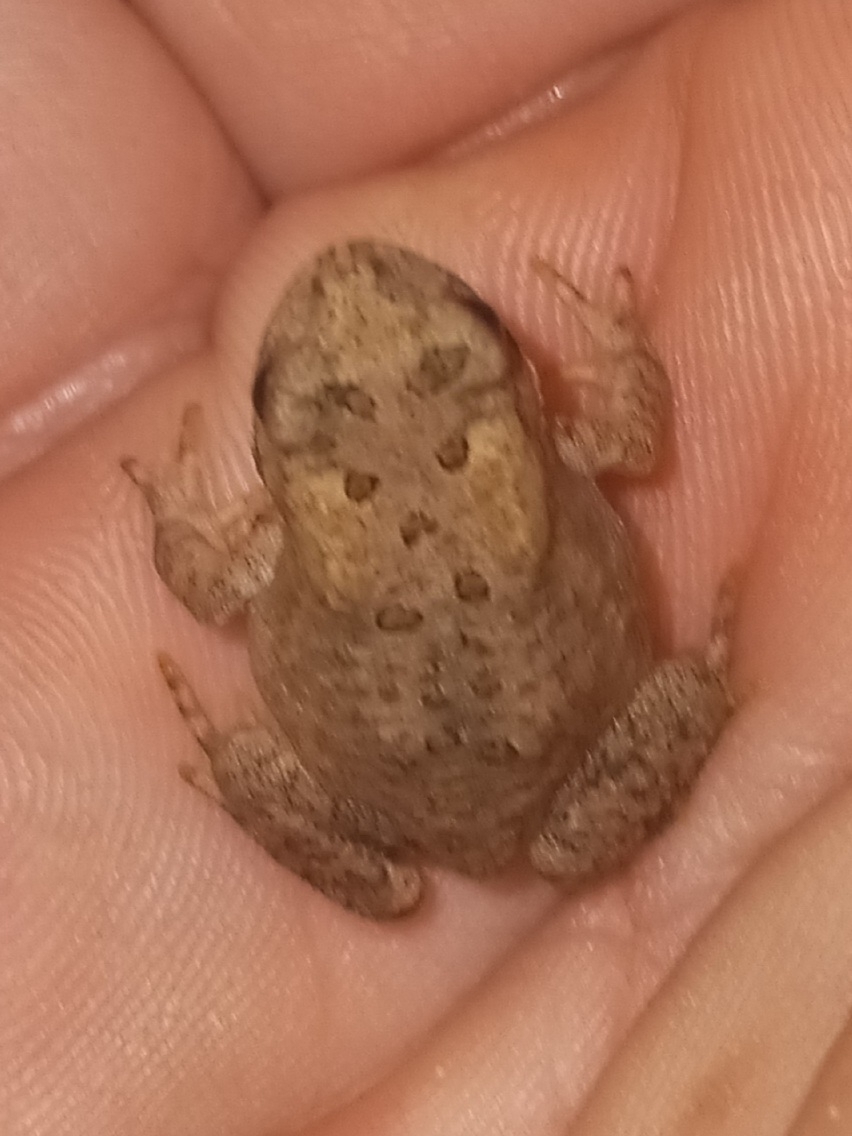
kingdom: Animalia
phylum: Chordata
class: Amphibia
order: Anura
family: Bufonidae
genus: Anaxyrus
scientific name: Anaxyrus americanus
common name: American toad
